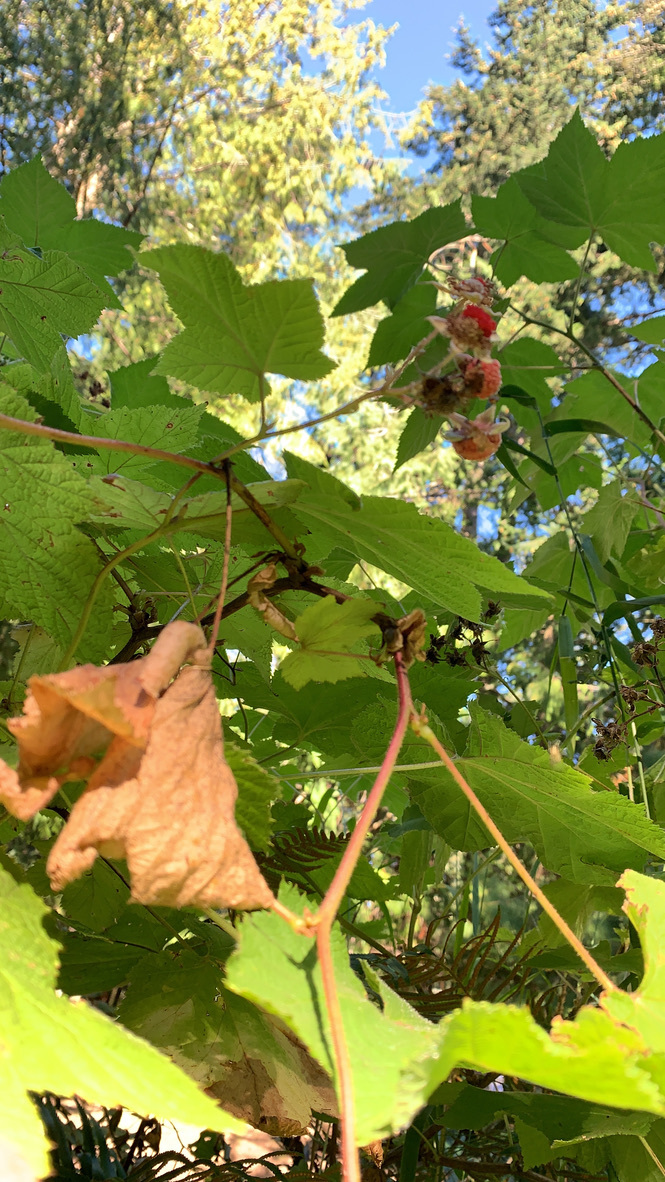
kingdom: Plantae
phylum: Tracheophyta
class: Magnoliopsida
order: Rosales
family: Rosaceae
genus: Rubus
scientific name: Rubus parviflorus
